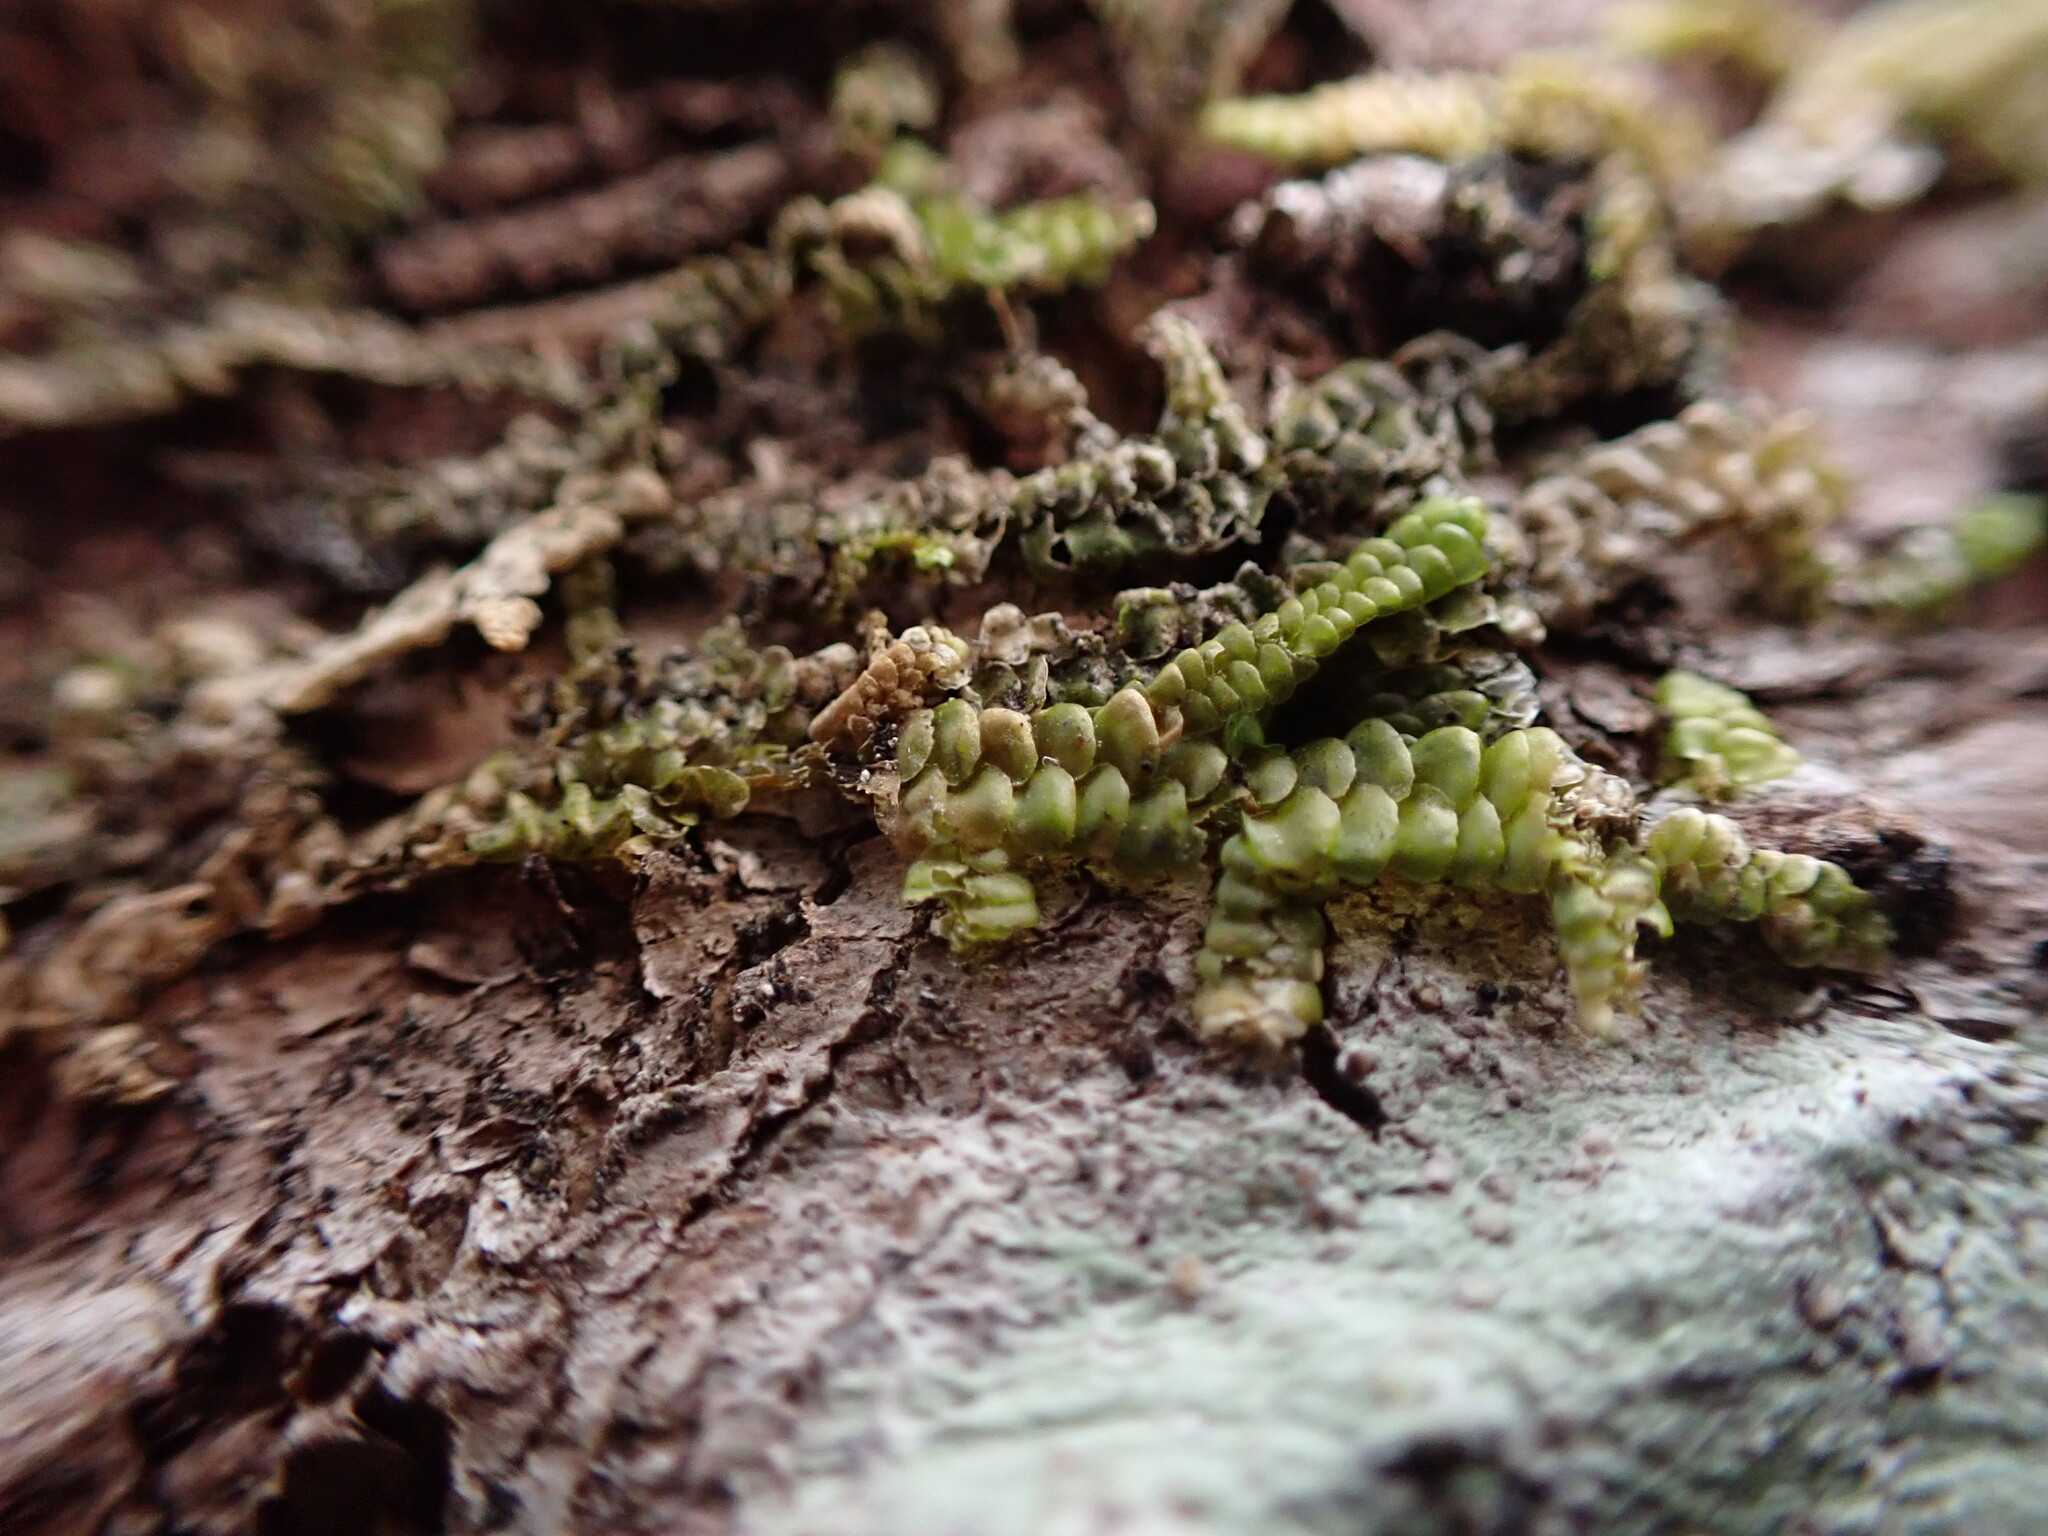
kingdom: Plantae
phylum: Marchantiophyta
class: Jungermanniopsida
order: Porellales
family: Porellaceae
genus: Porella
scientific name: Porella navicularis
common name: Tree ruffle liverwort
